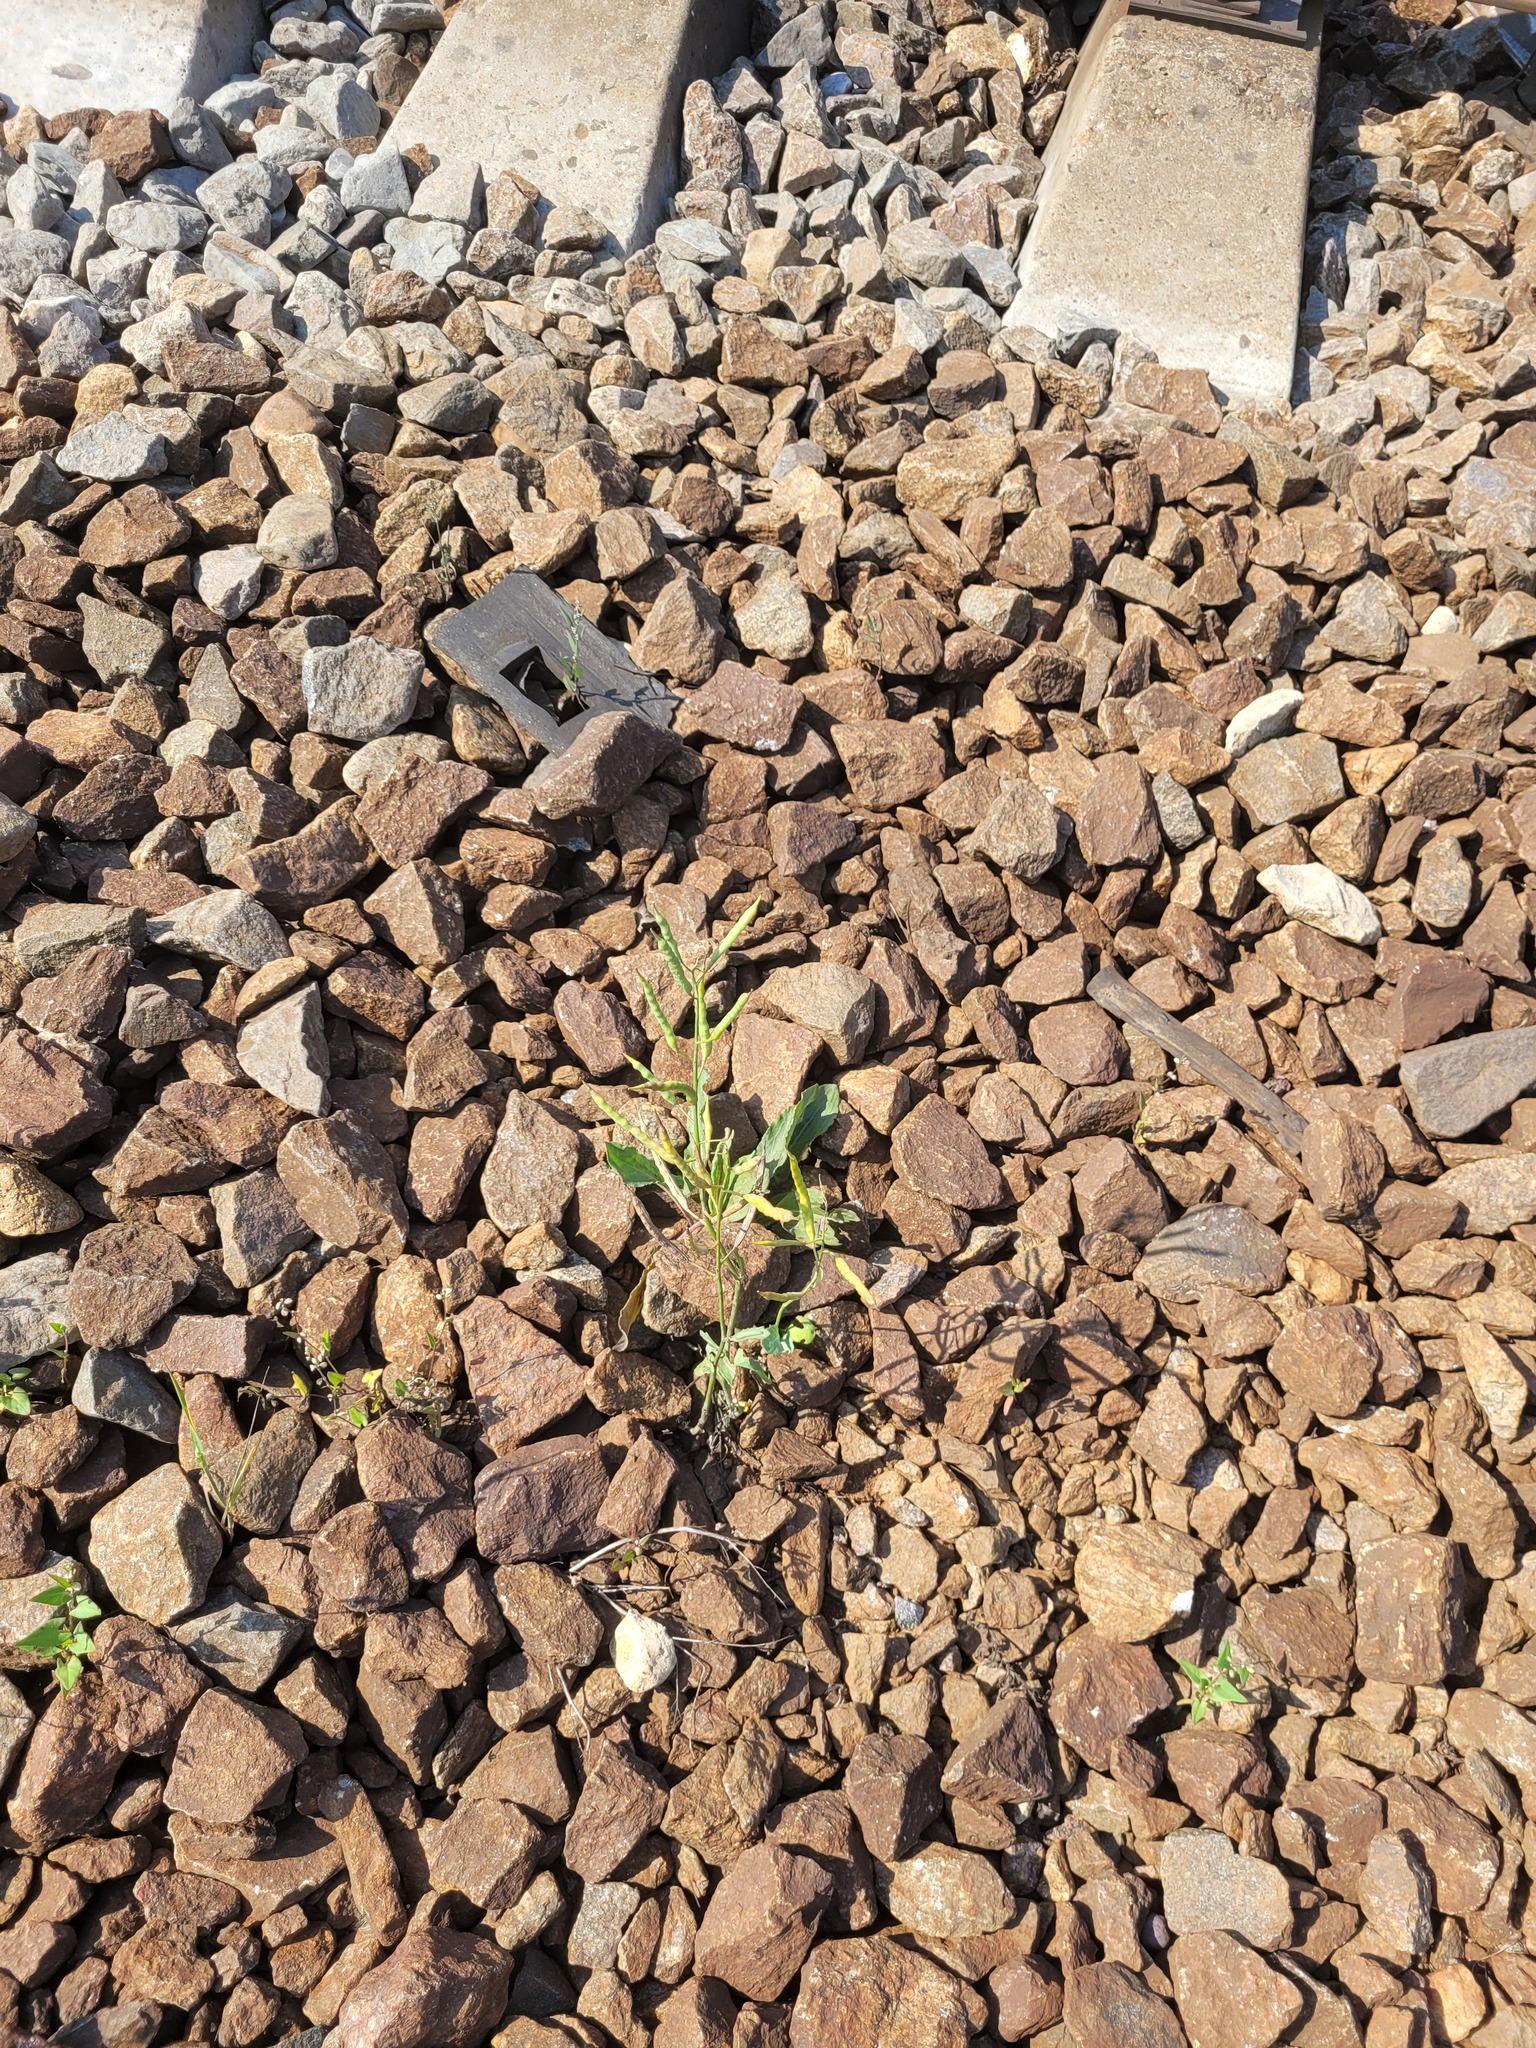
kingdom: Plantae
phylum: Tracheophyta
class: Magnoliopsida
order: Brassicales
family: Brassicaceae
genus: Brassica
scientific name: Brassica napus
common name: Rape
